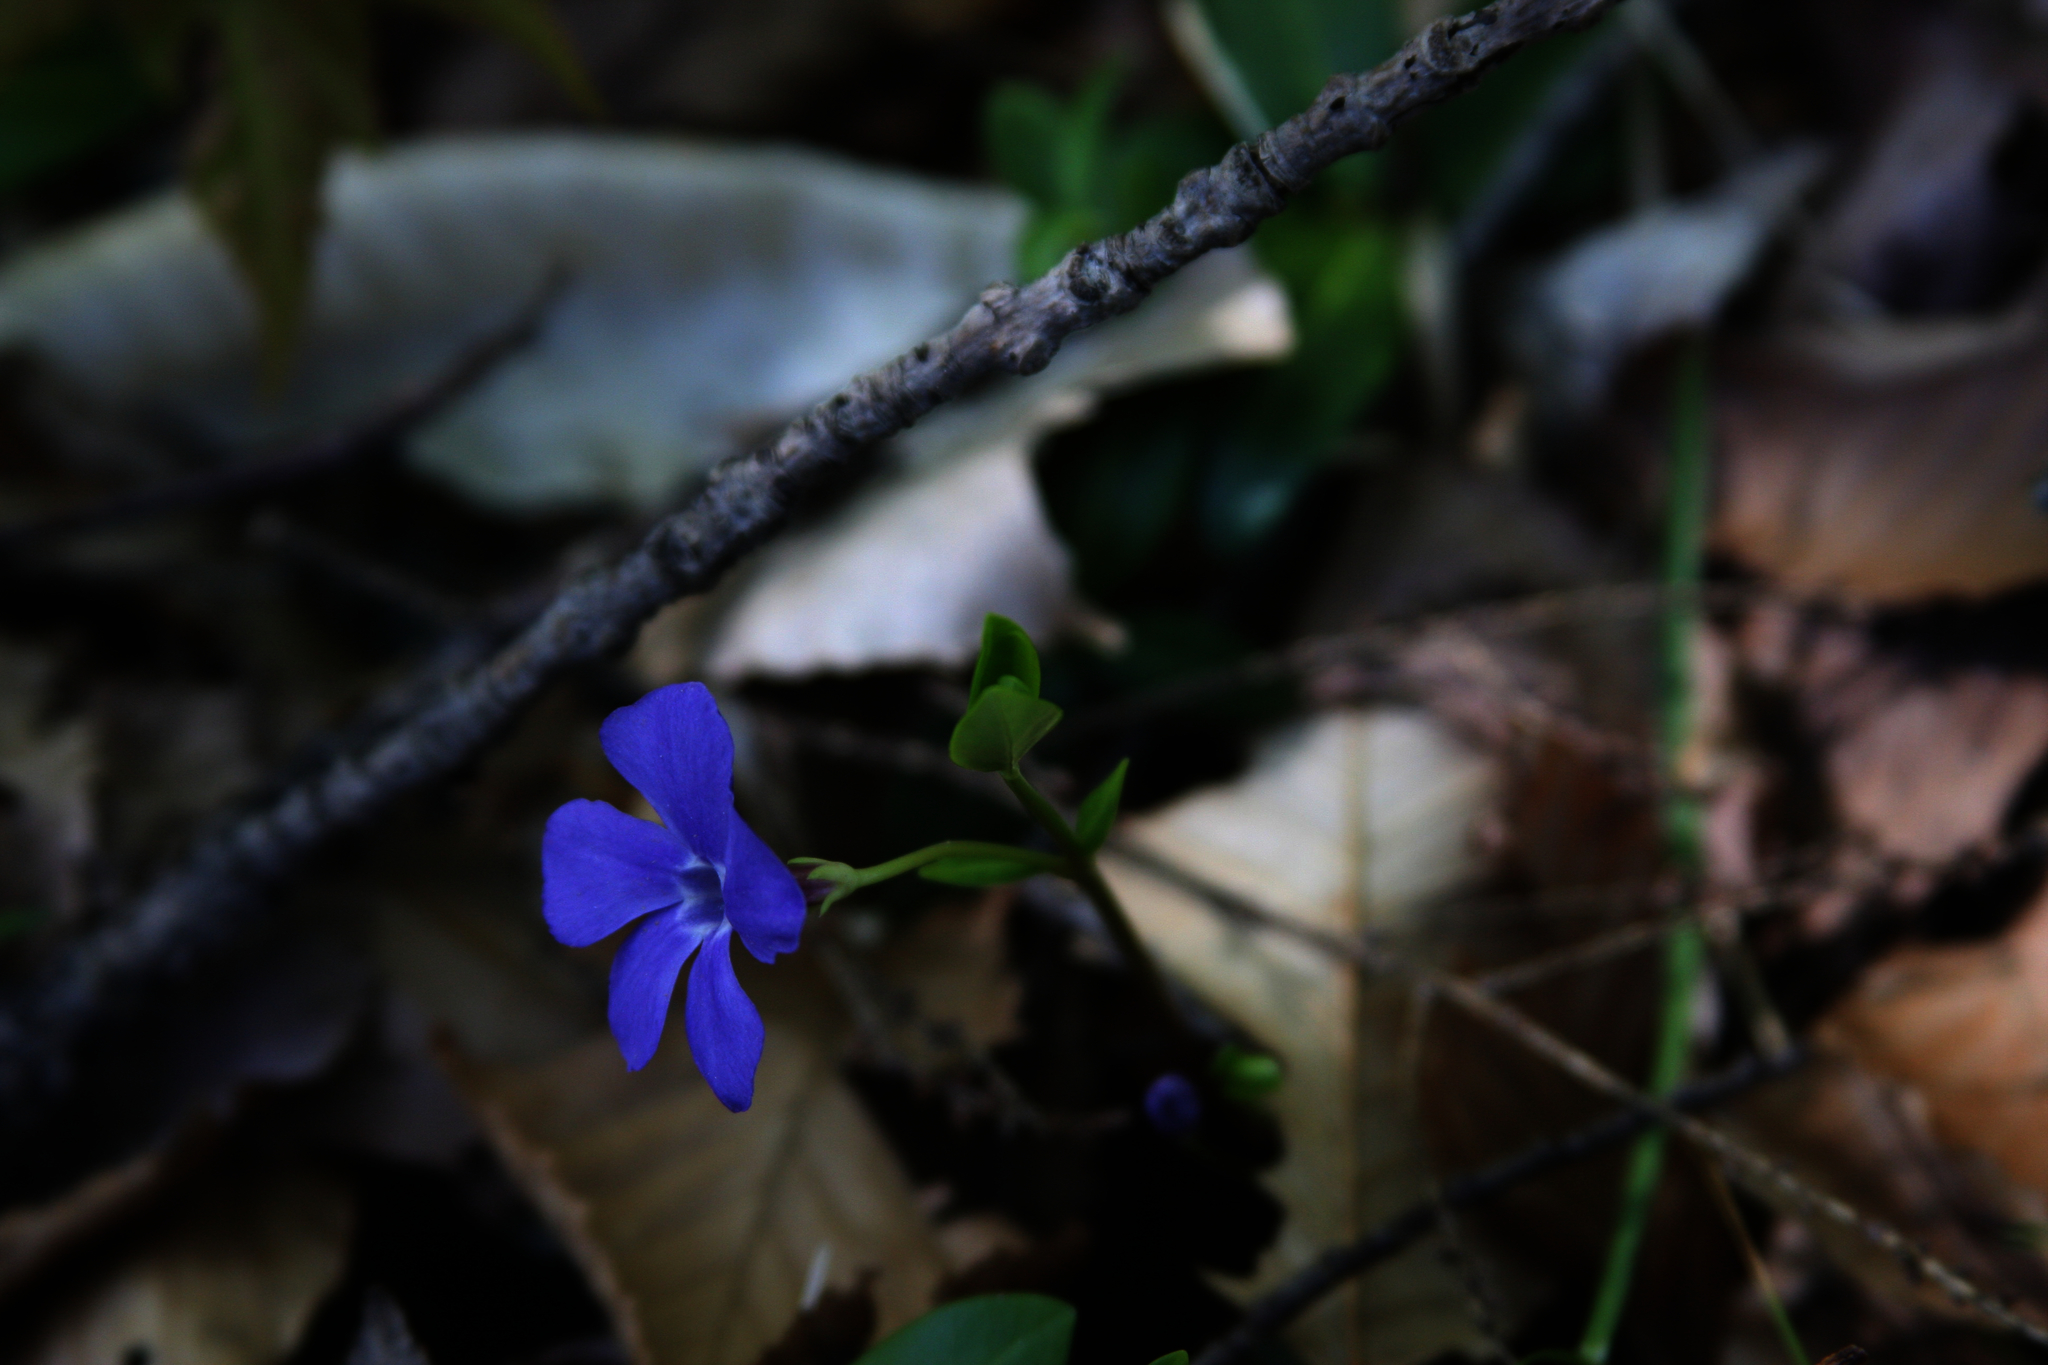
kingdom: Plantae
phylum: Tracheophyta
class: Magnoliopsida
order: Gentianales
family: Apocynaceae
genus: Vinca
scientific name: Vinca minor
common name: Lesser periwinkle
